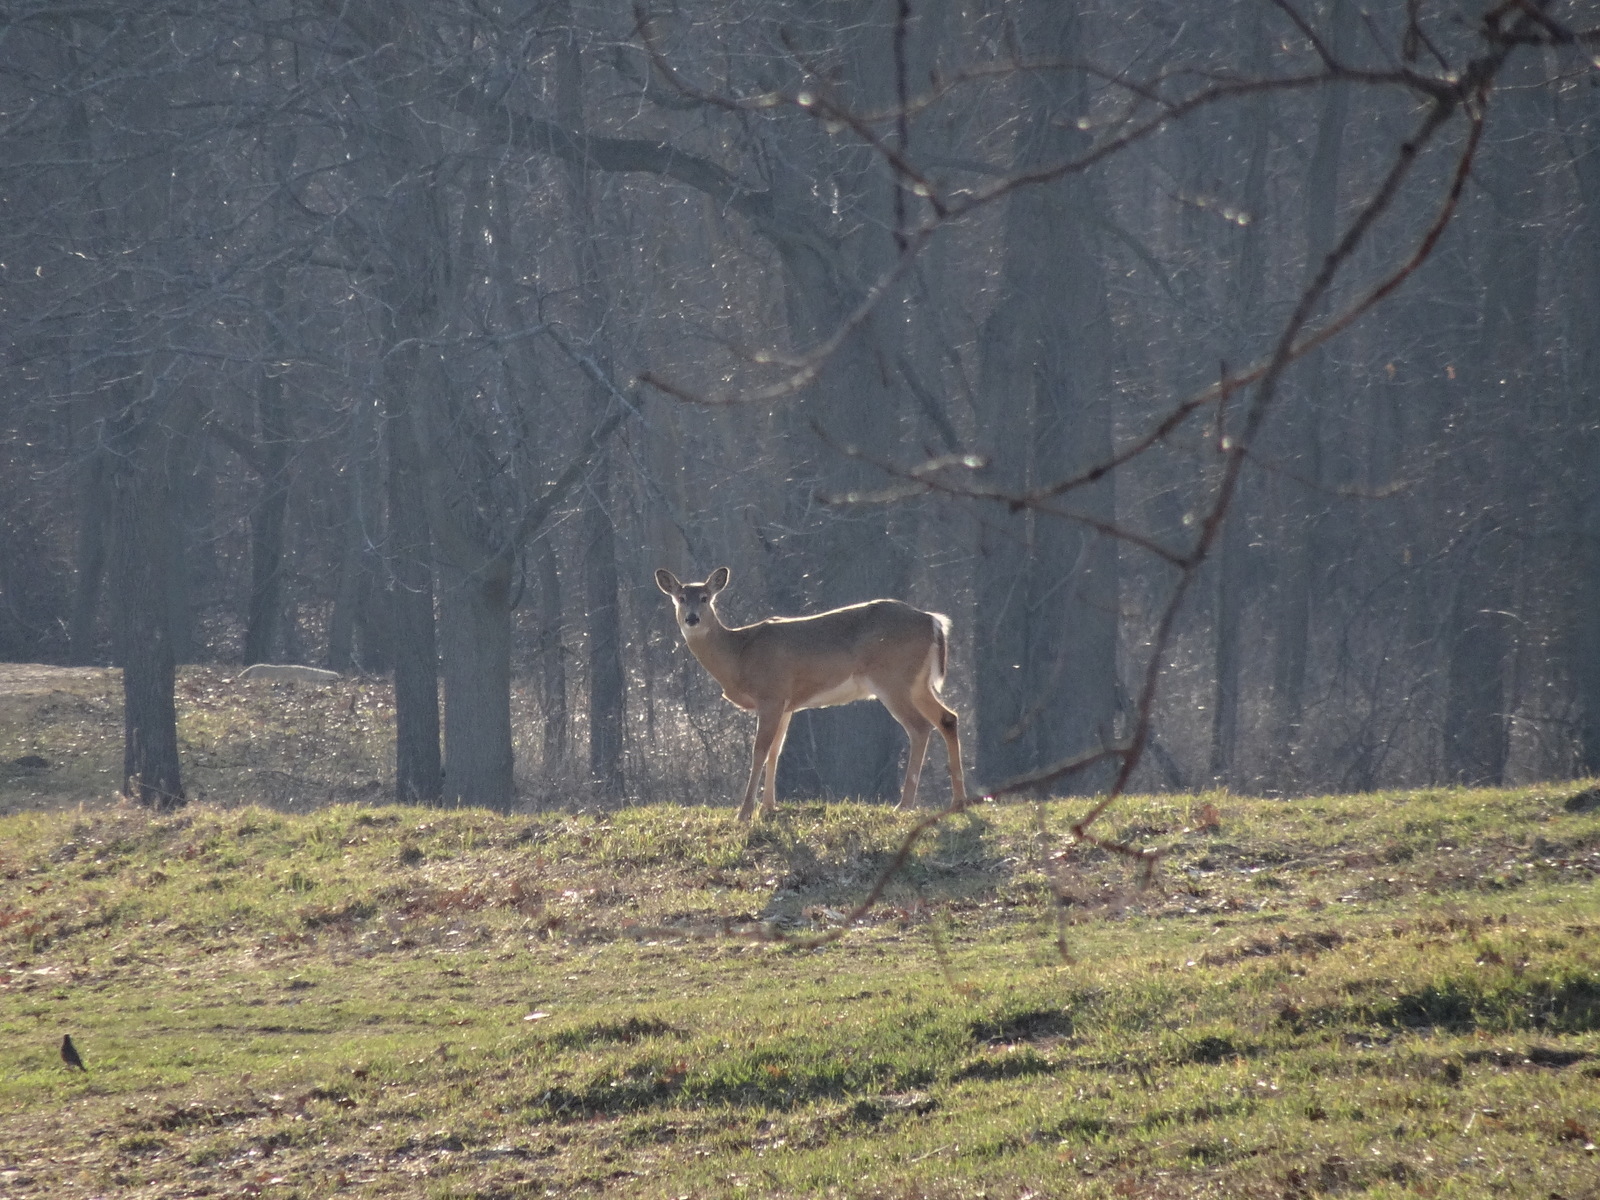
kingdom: Animalia
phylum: Chordata
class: Mammalia
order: Artiodactyla
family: Cervidae
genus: Odocoileus
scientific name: Odocoileus virginianus
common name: White-tailed deer
